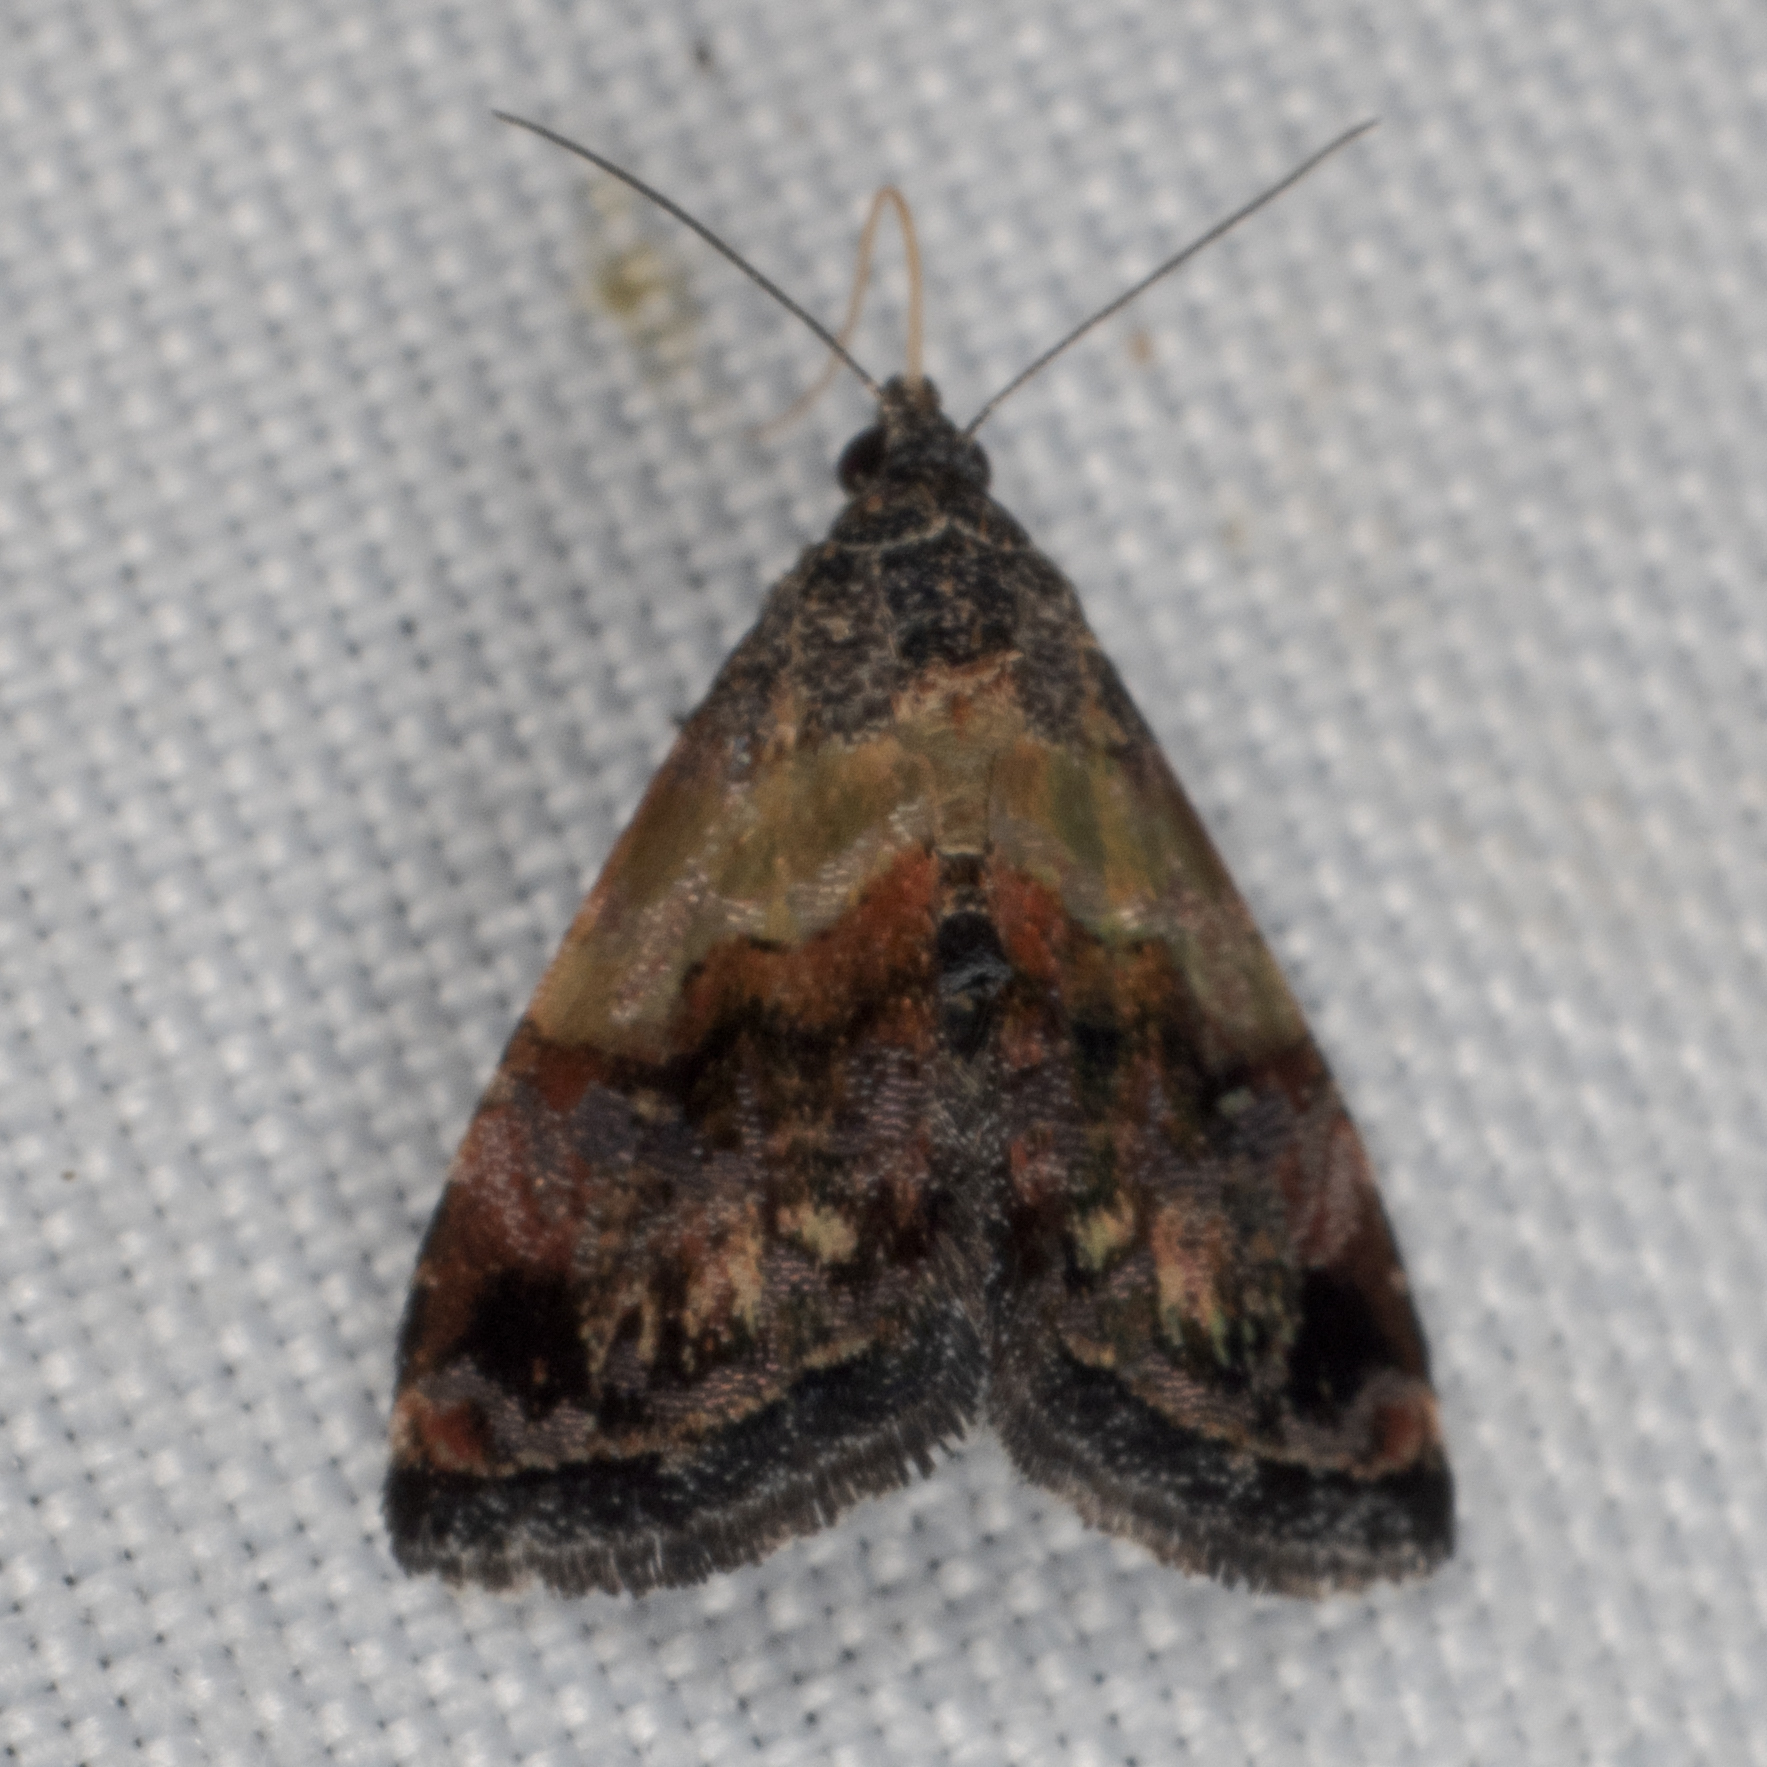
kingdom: Animalia
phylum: Arthropoda
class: Insecta
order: Lepidoptera
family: Noctuidae
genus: Tripudia
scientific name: Tripudia flavofasciata
